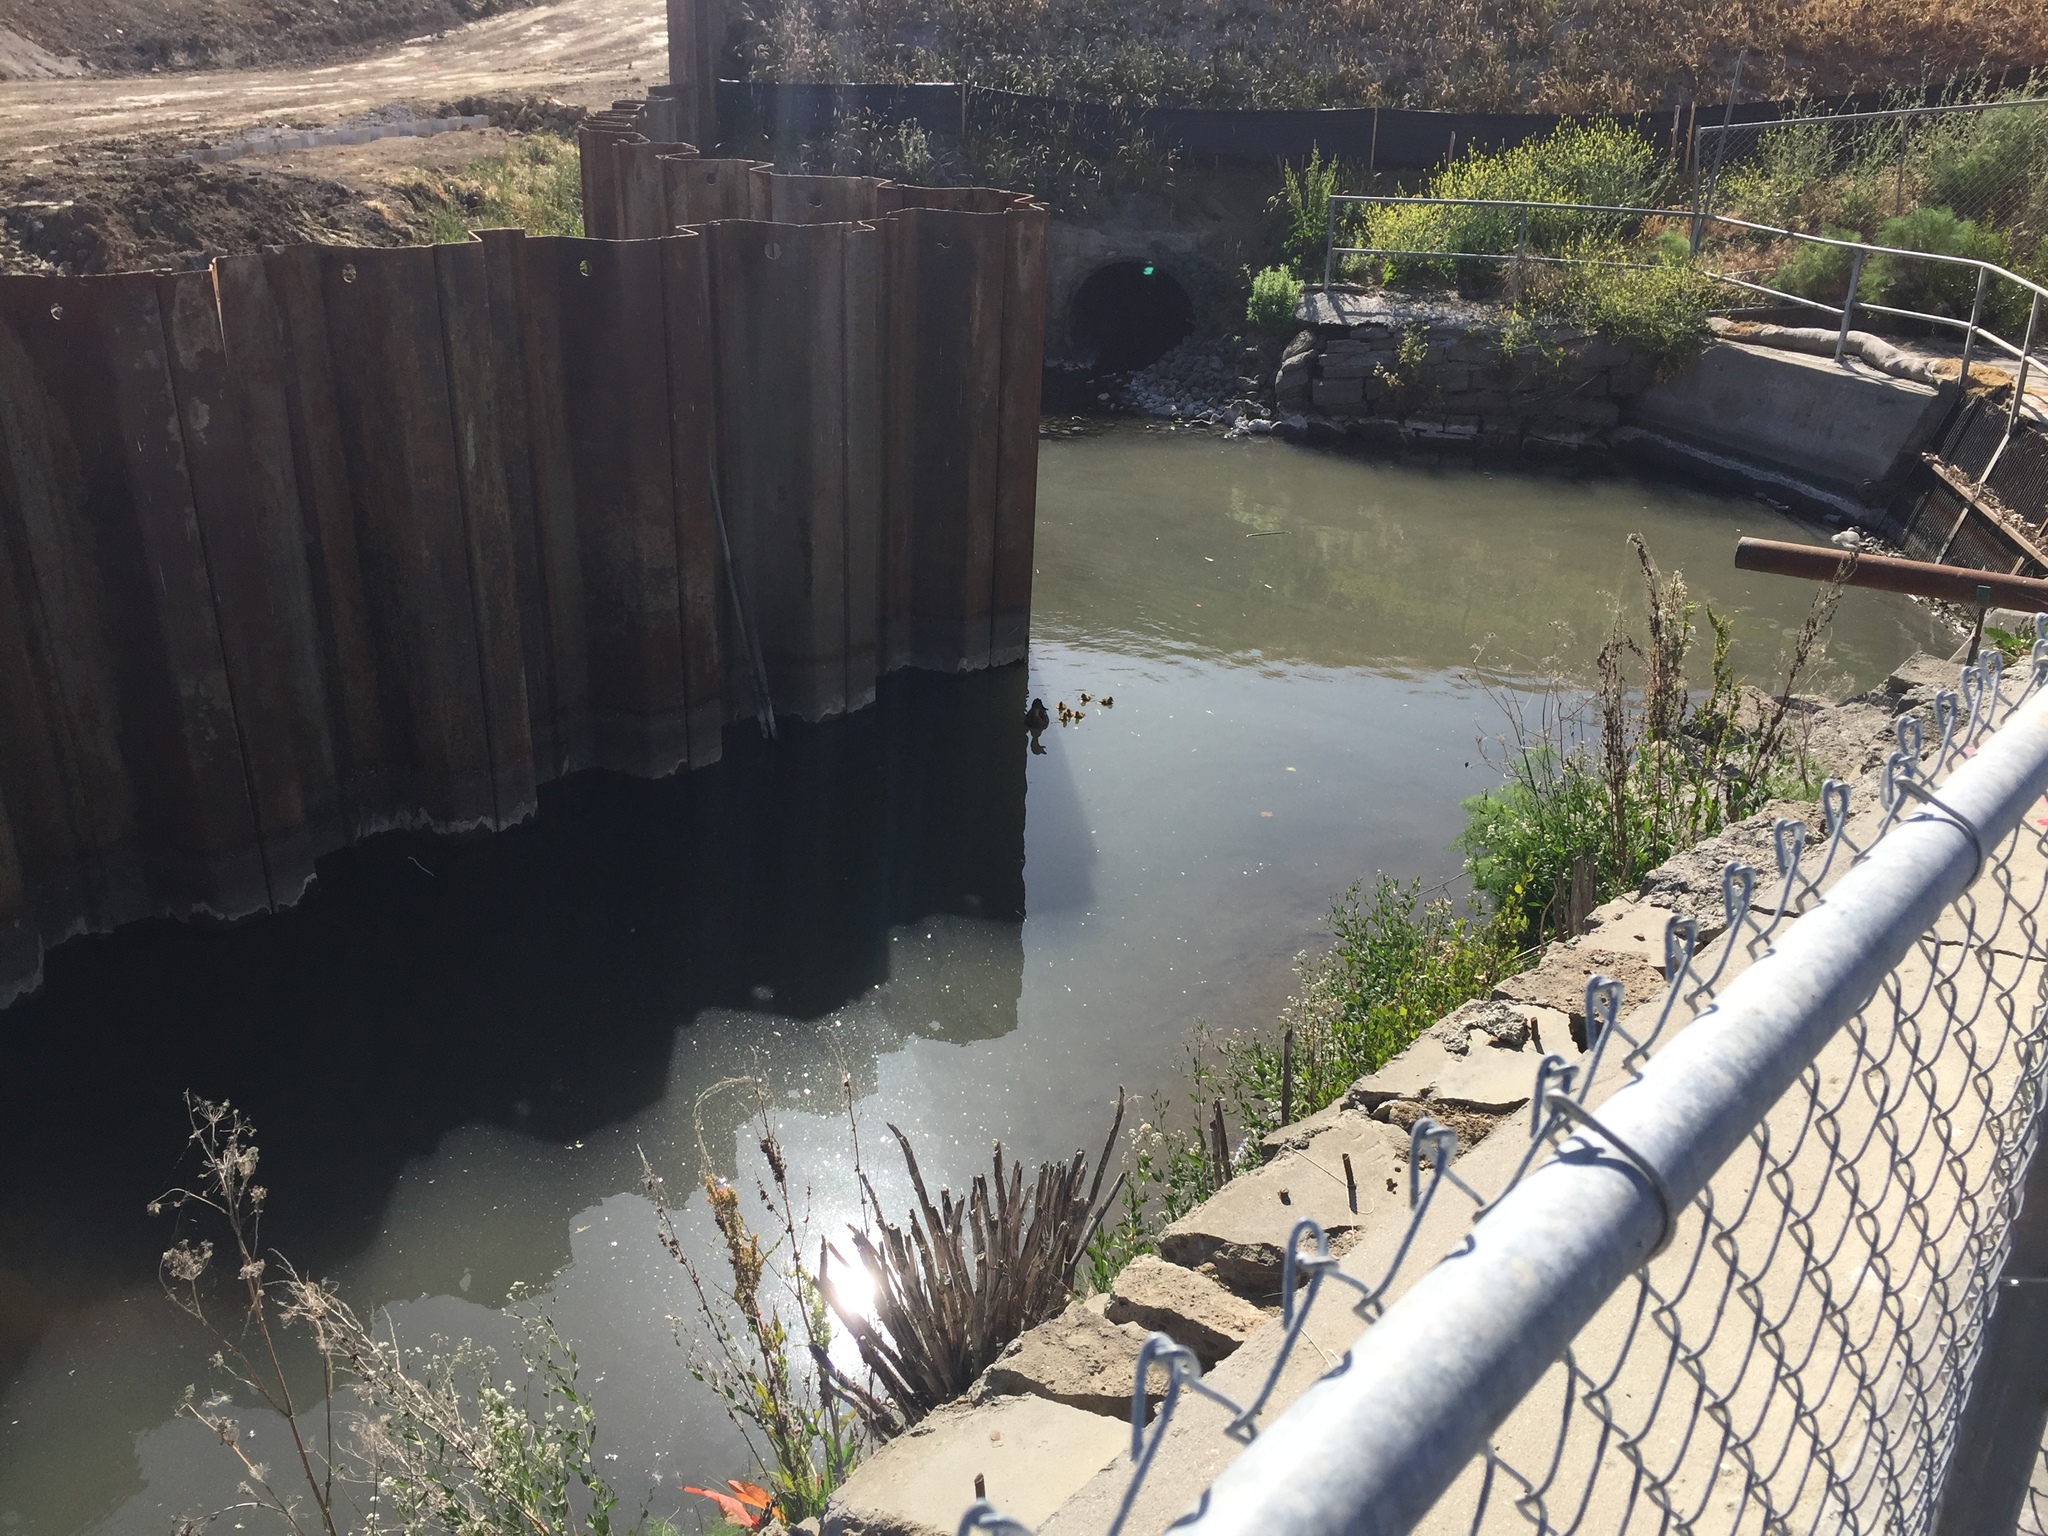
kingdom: Animalia
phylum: Chordata
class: Aves
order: Anseriformes
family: Anatidae
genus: Anas
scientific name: Anas platyrhynchos
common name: Mallard
